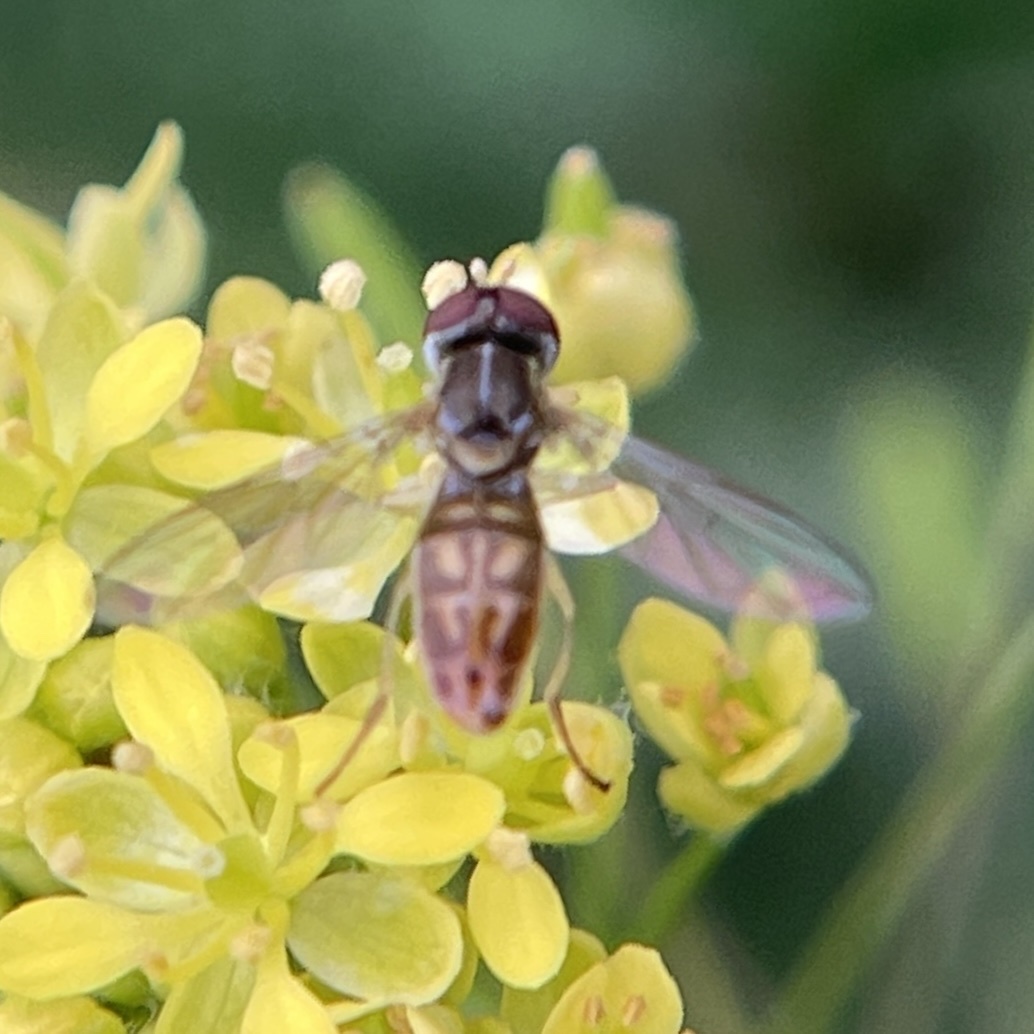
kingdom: Animalia
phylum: Arthropoda
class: Insecta
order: Diptera
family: Syrphidae
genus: Toxomerus
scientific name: Toxomerus marginatus
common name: Syrphid fly
